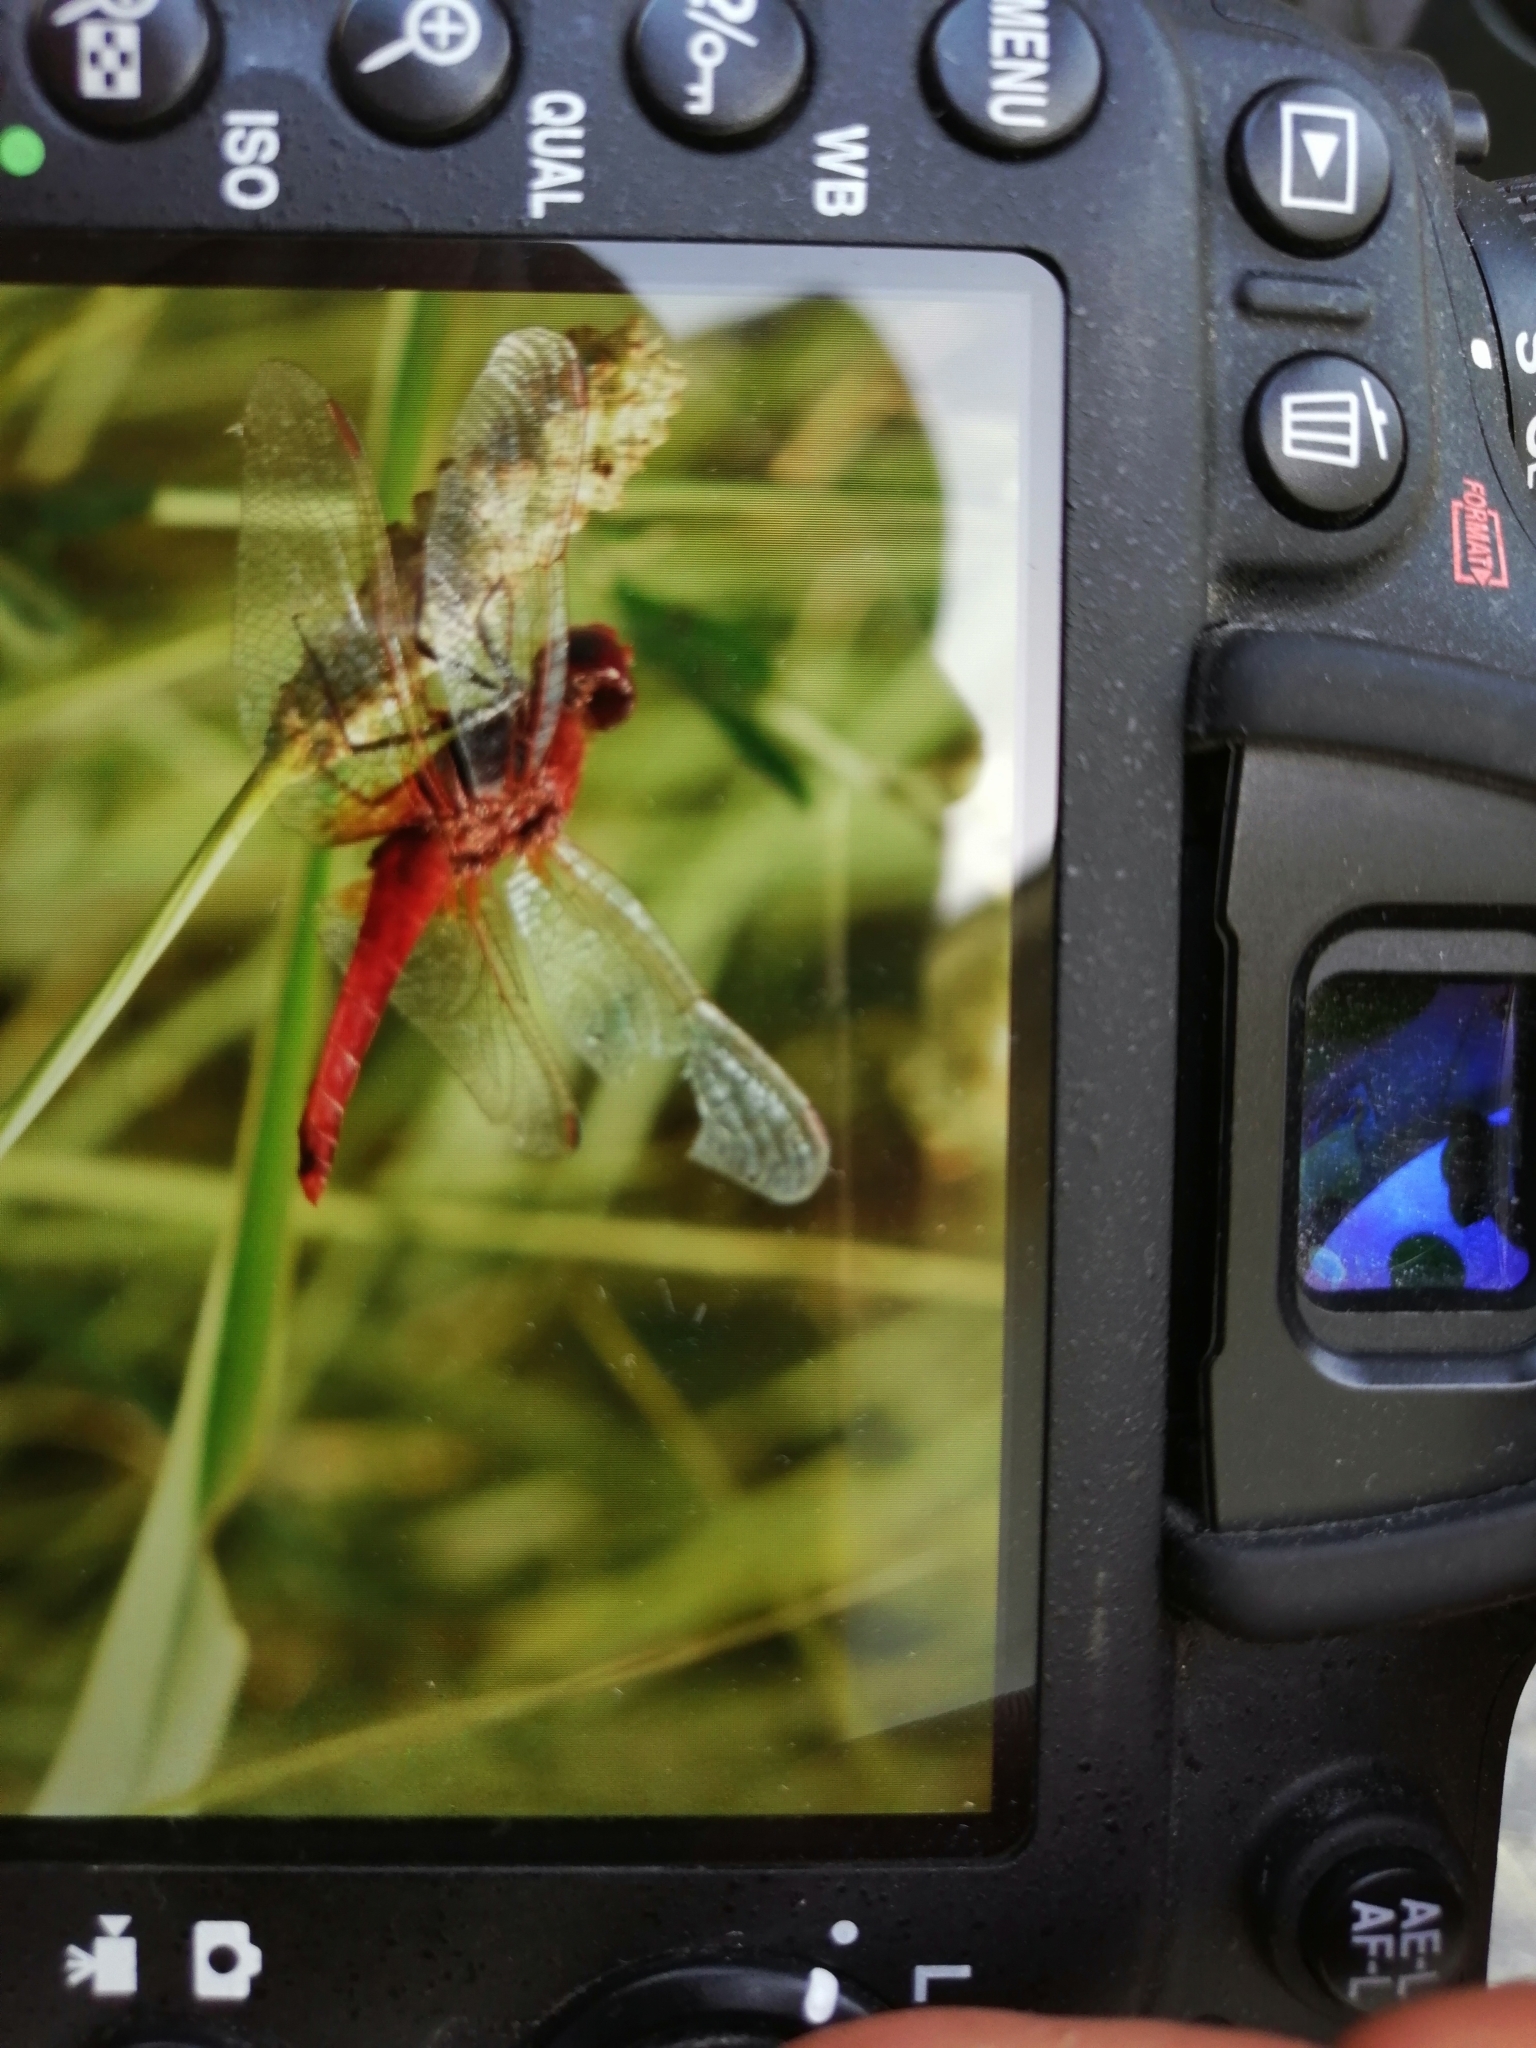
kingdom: Animalia
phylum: Arthropoda
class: Insecta
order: Odonata
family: Libellulidae
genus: Crocothemis
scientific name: Crocothemis erythraea
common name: Scarlet dragonfly
